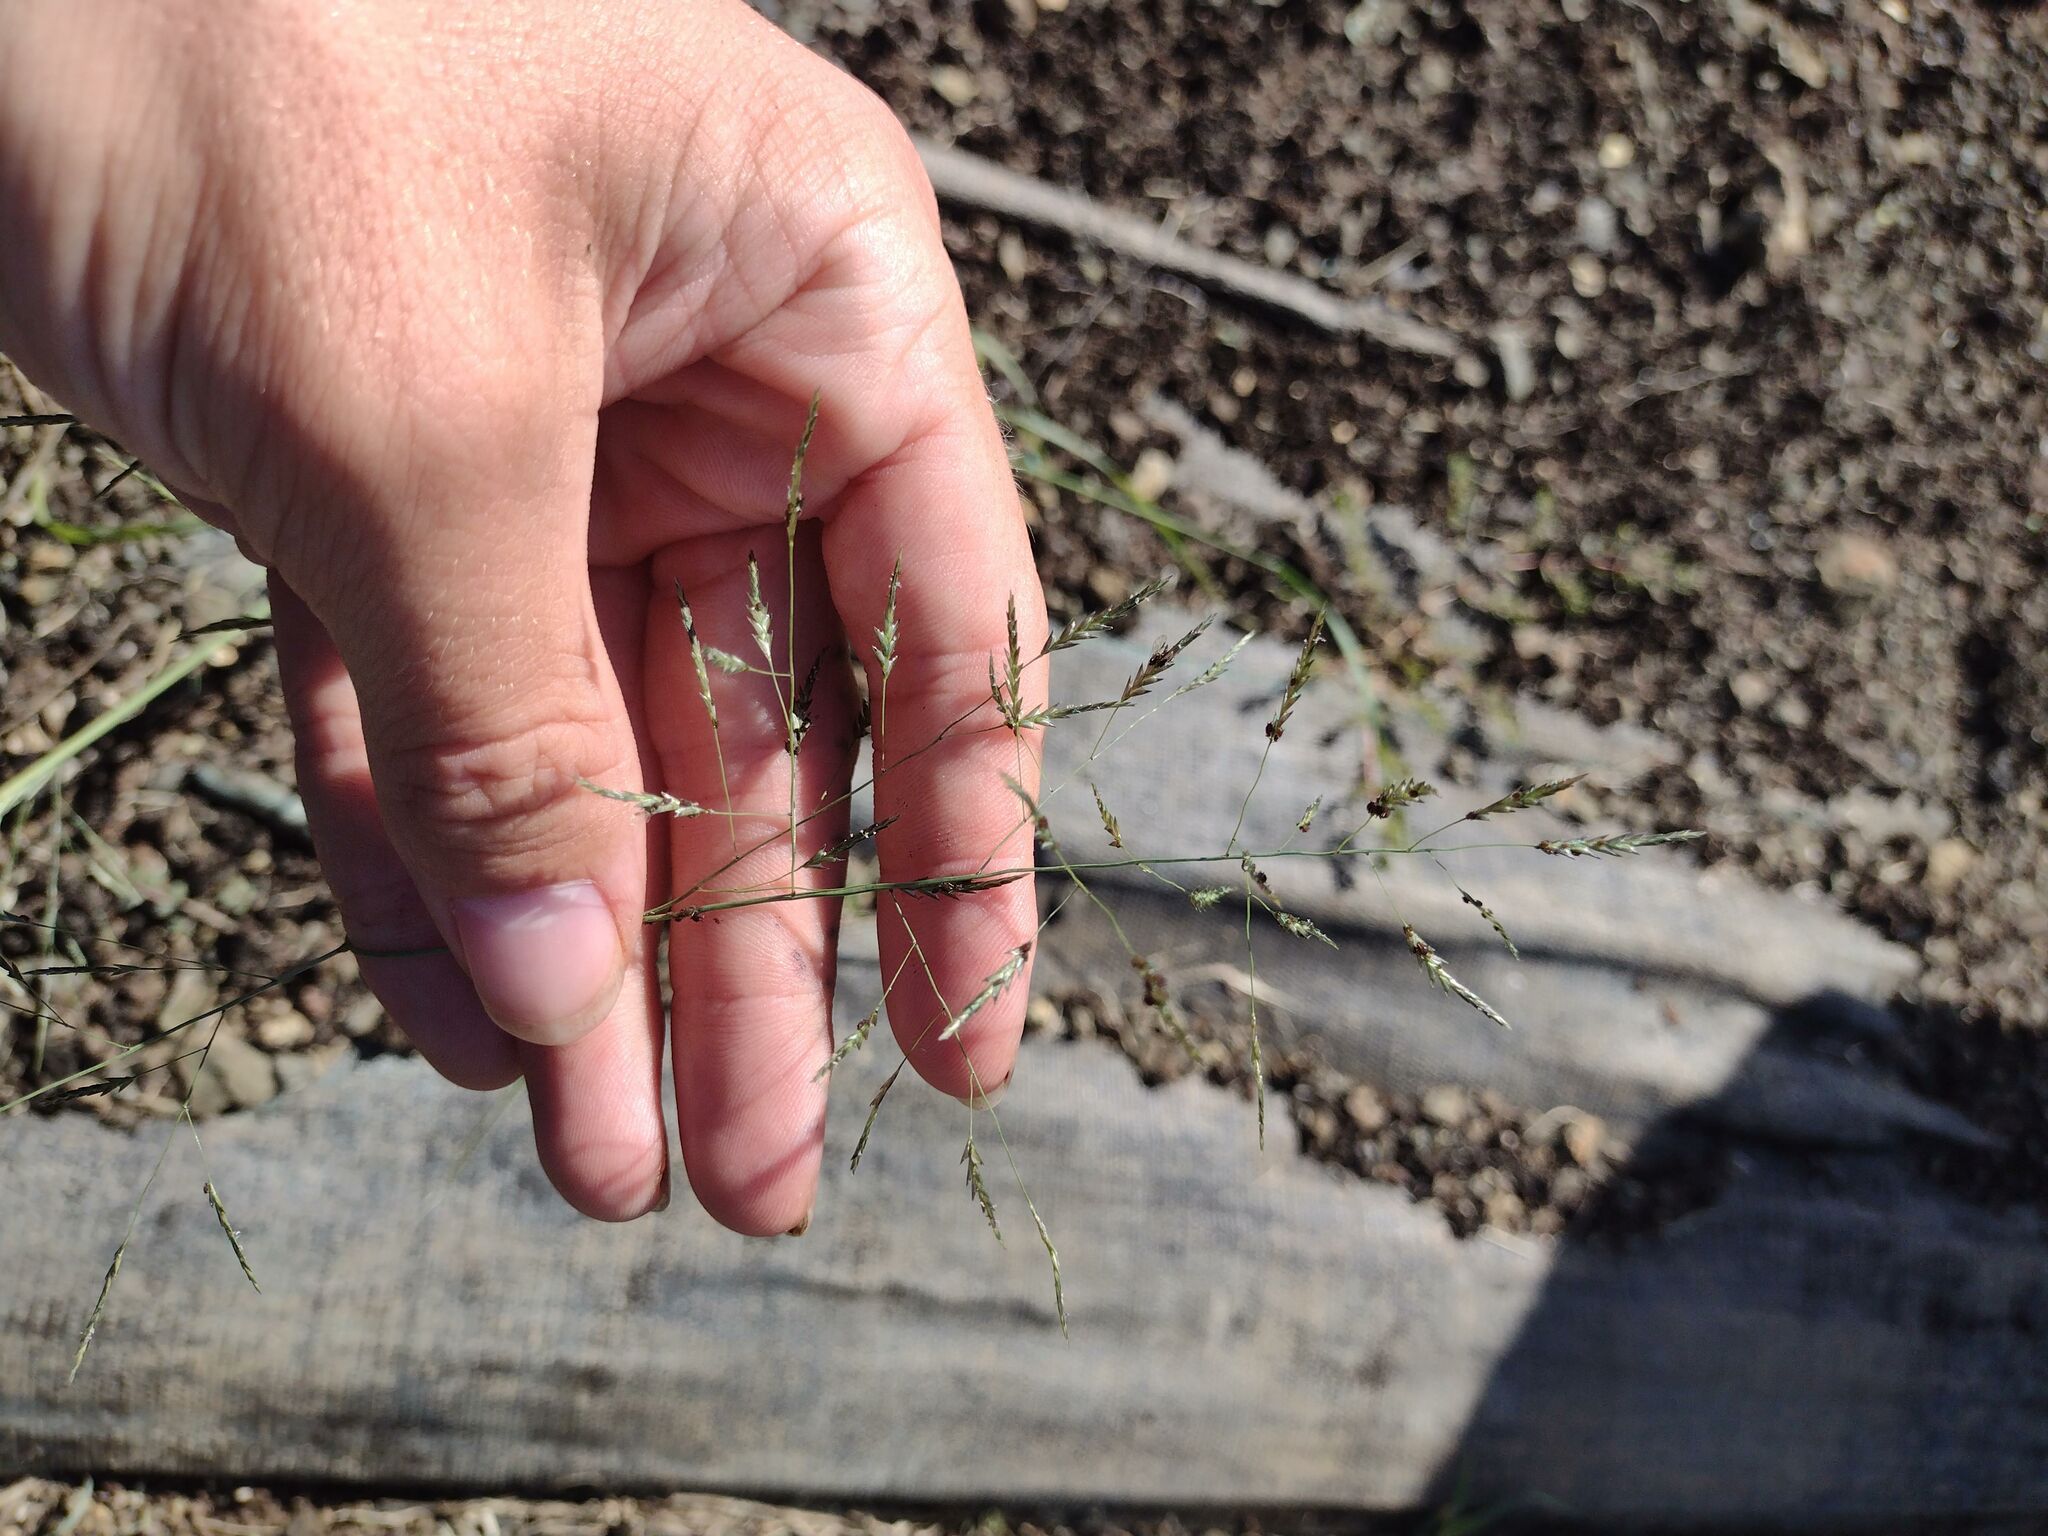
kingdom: Plantae
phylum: Tracheophyta
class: Liliopsida
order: Poales
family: Poaceae
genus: Eragrostis
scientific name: Eragrostis tenuifolia
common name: Elastic grass
